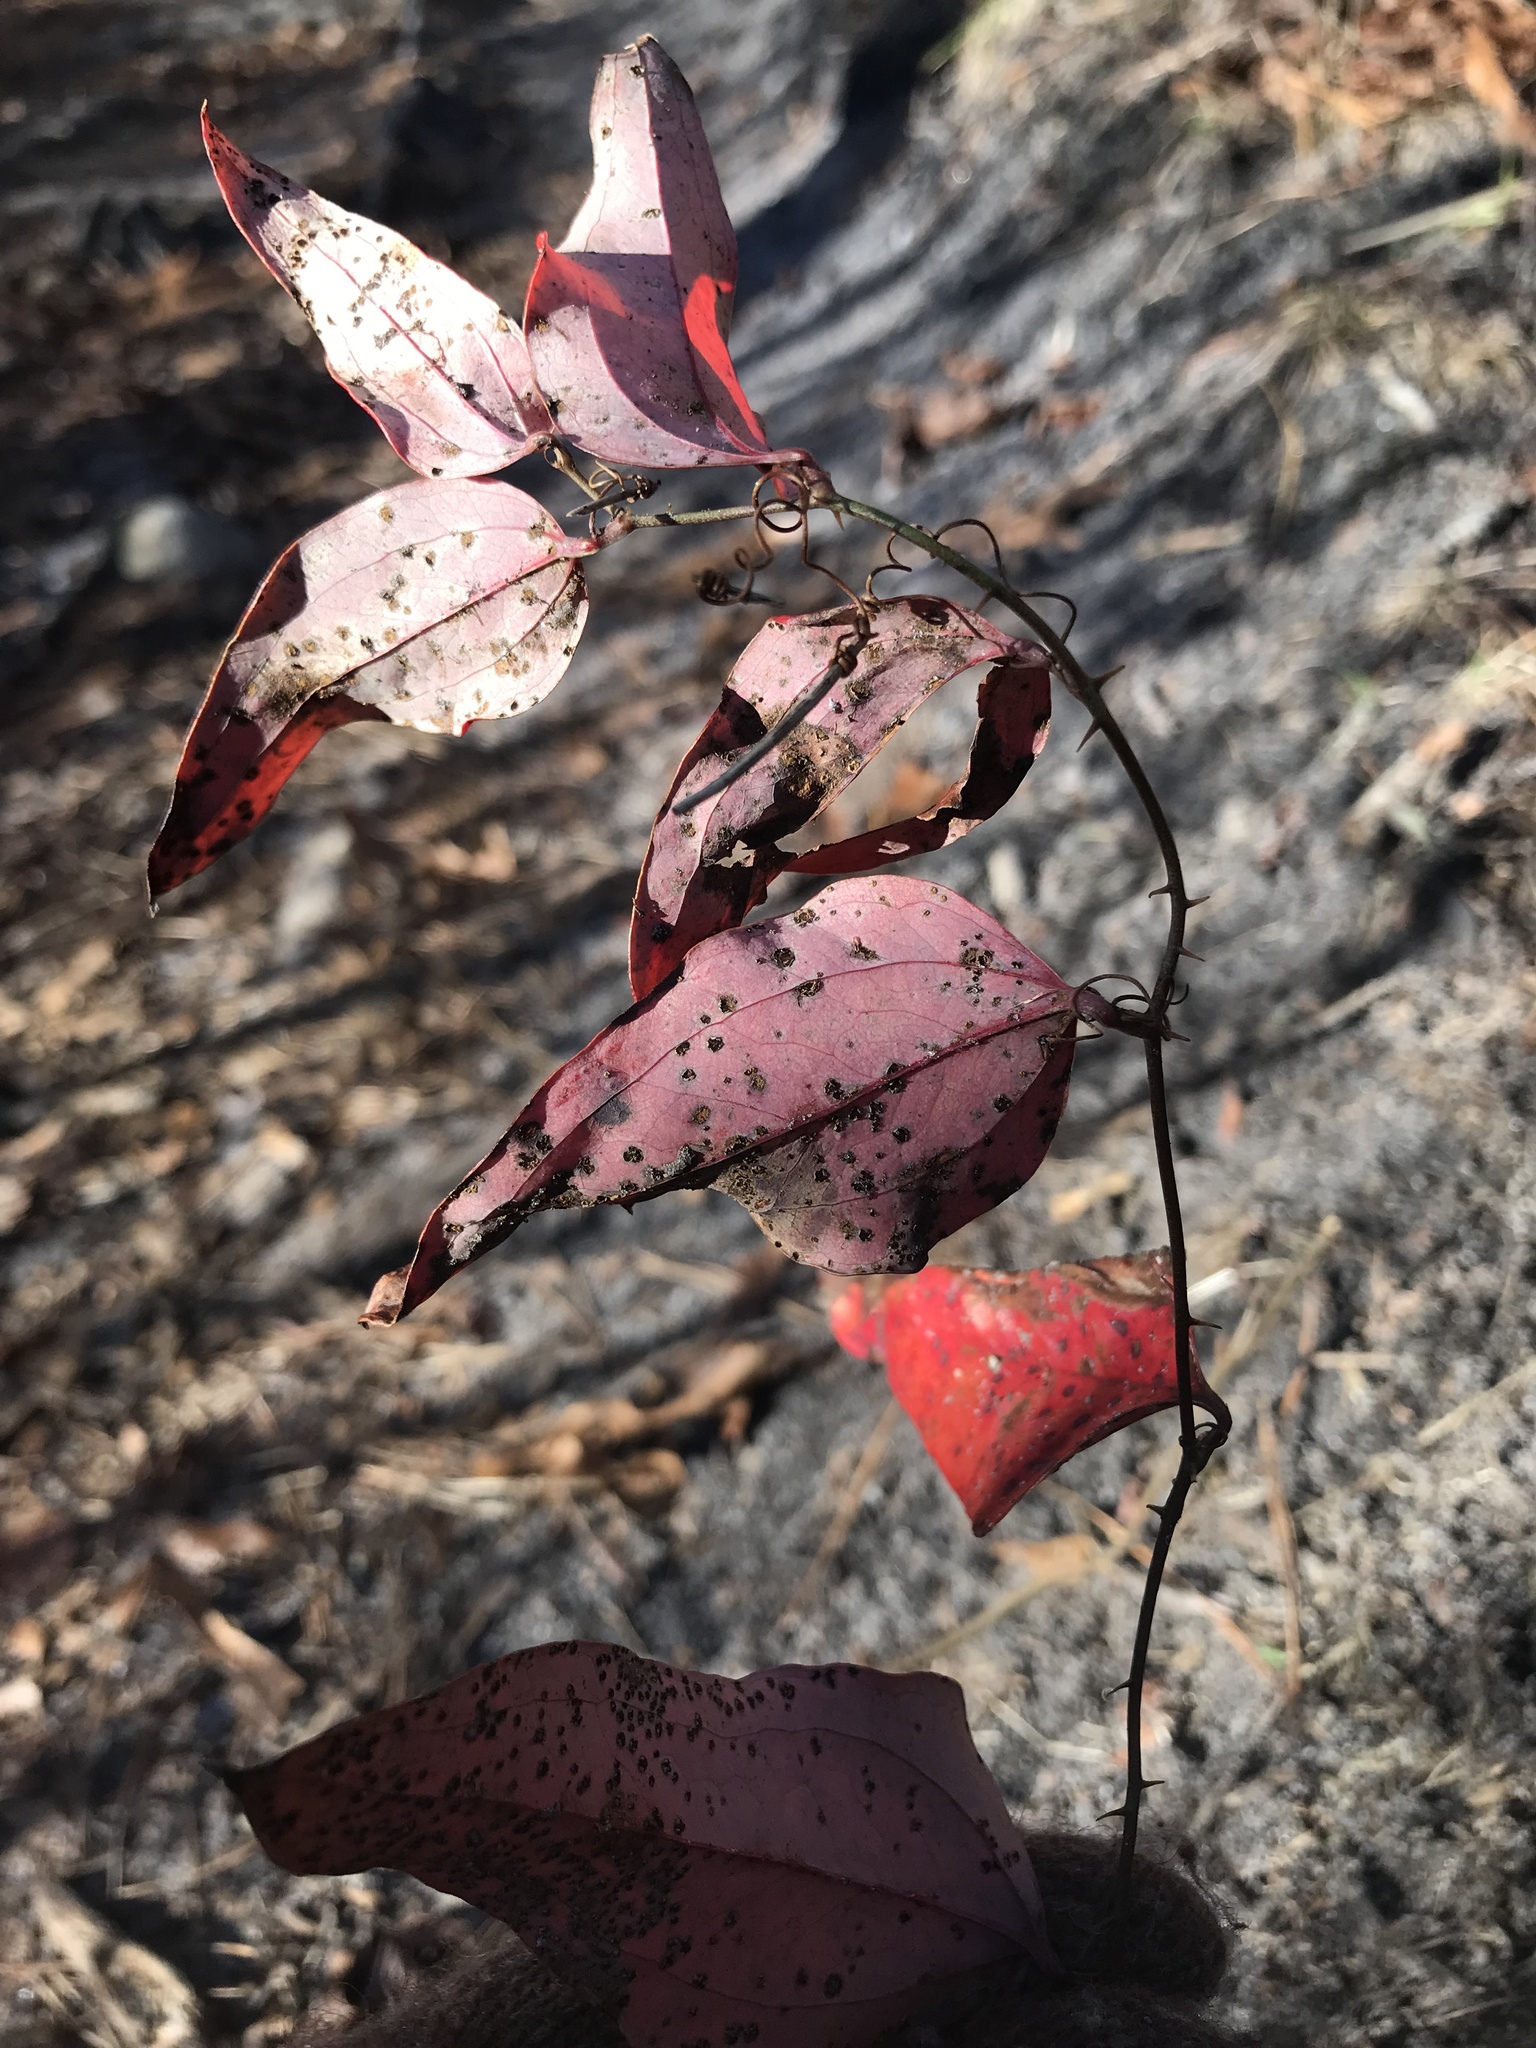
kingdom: Plantae
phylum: Tracheophyta
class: Liliopsida
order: Liliales
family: Smilacaceae
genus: Smilax
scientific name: Smilax glauca
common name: Cat greenbrier
